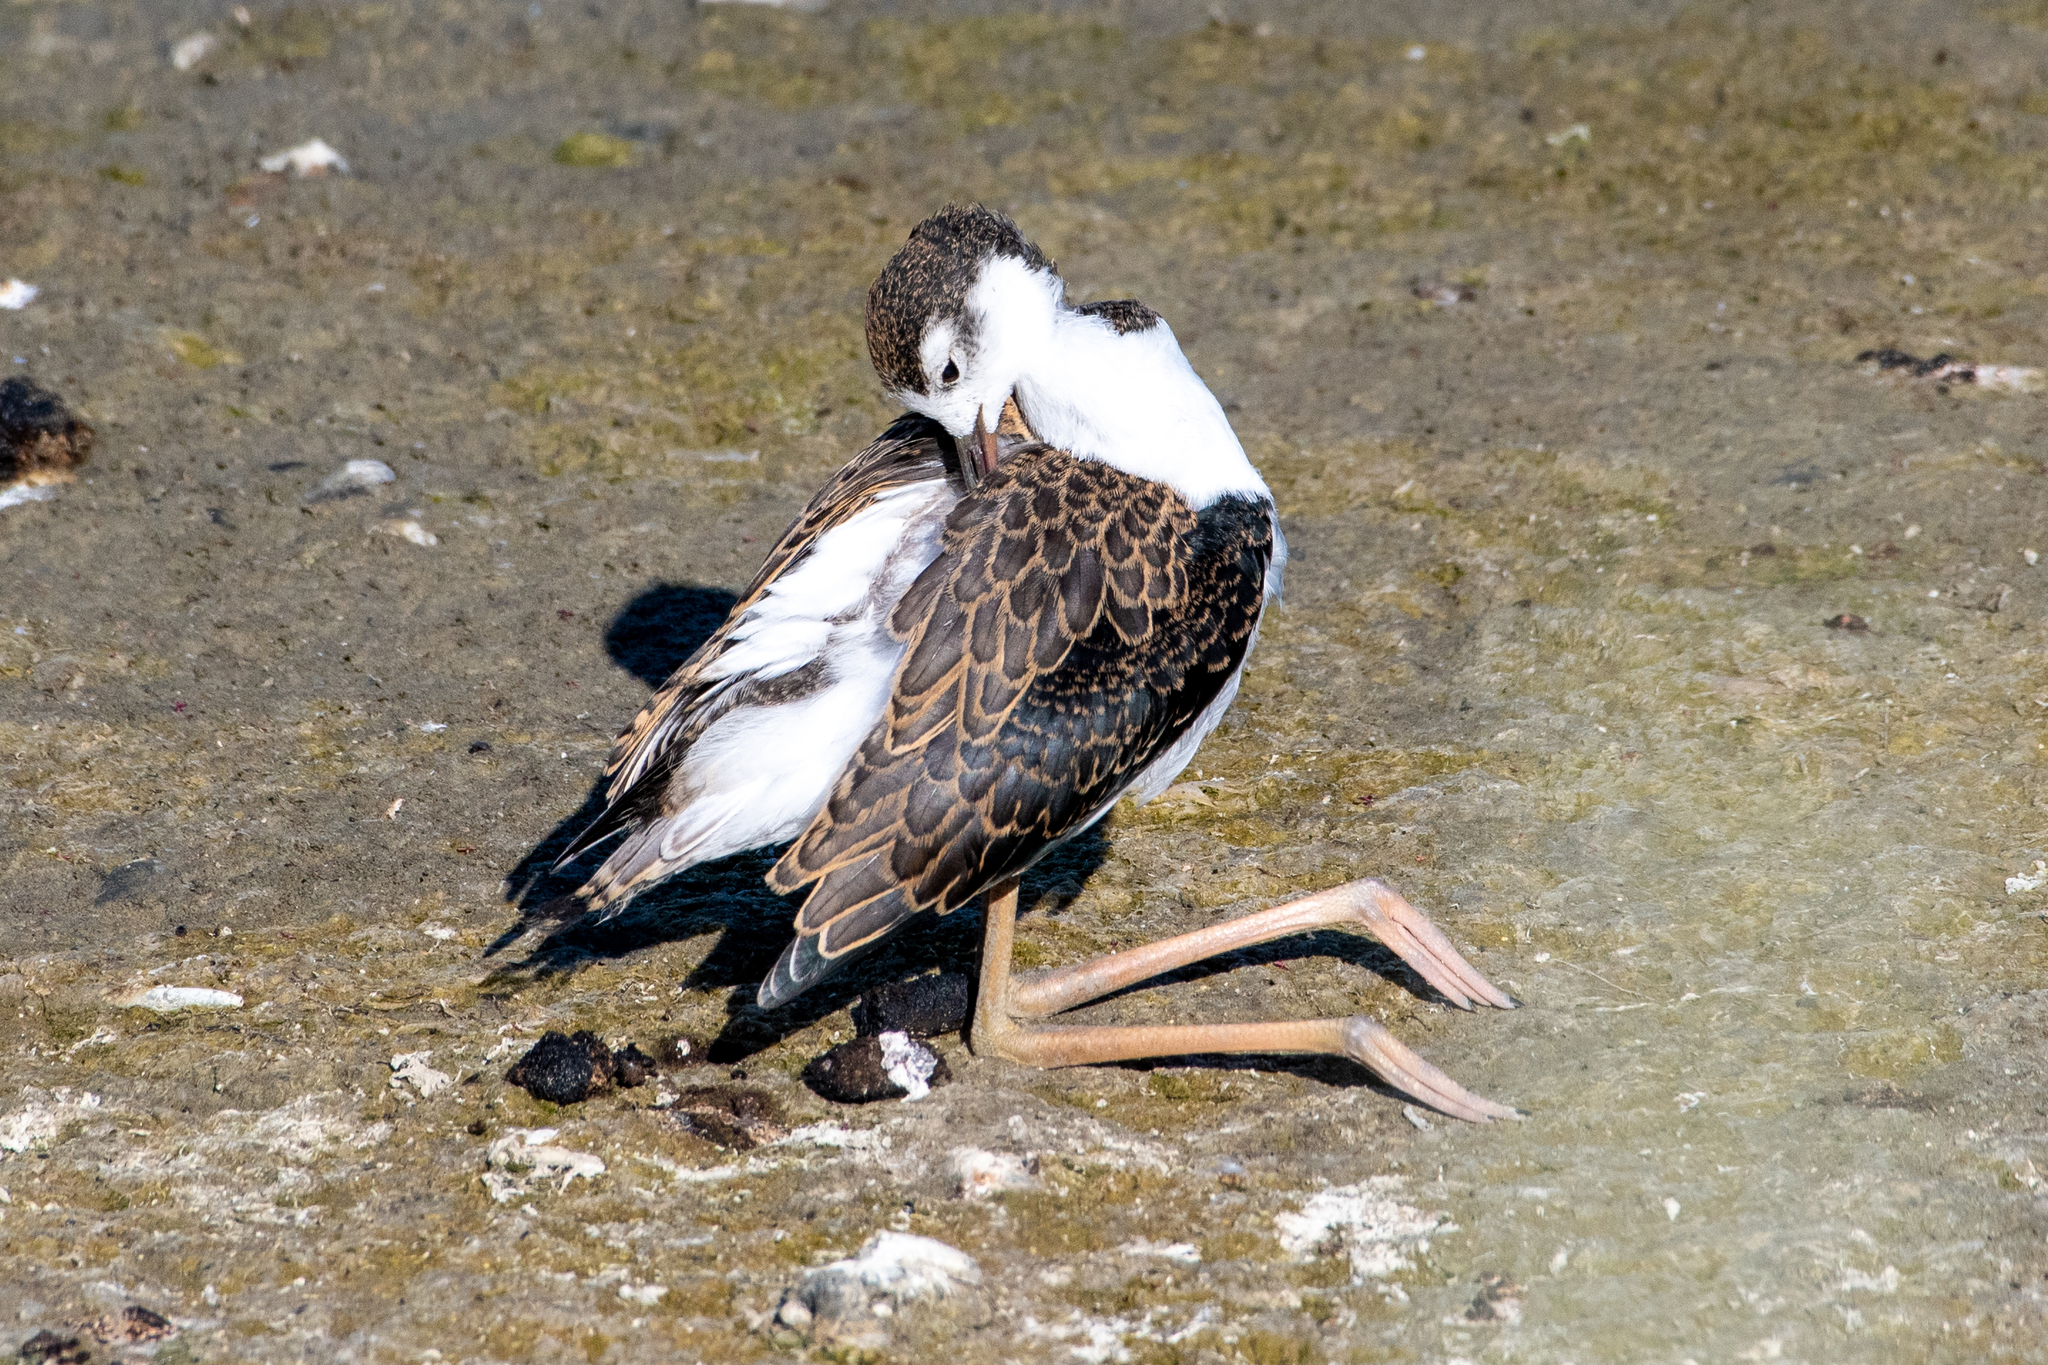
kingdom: Animalia
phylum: Chordata
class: Aves
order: Charadriiformes
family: Recurvirostridae
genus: Himantopus
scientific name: Himantopus mexicanus
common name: Black-necked stilt
